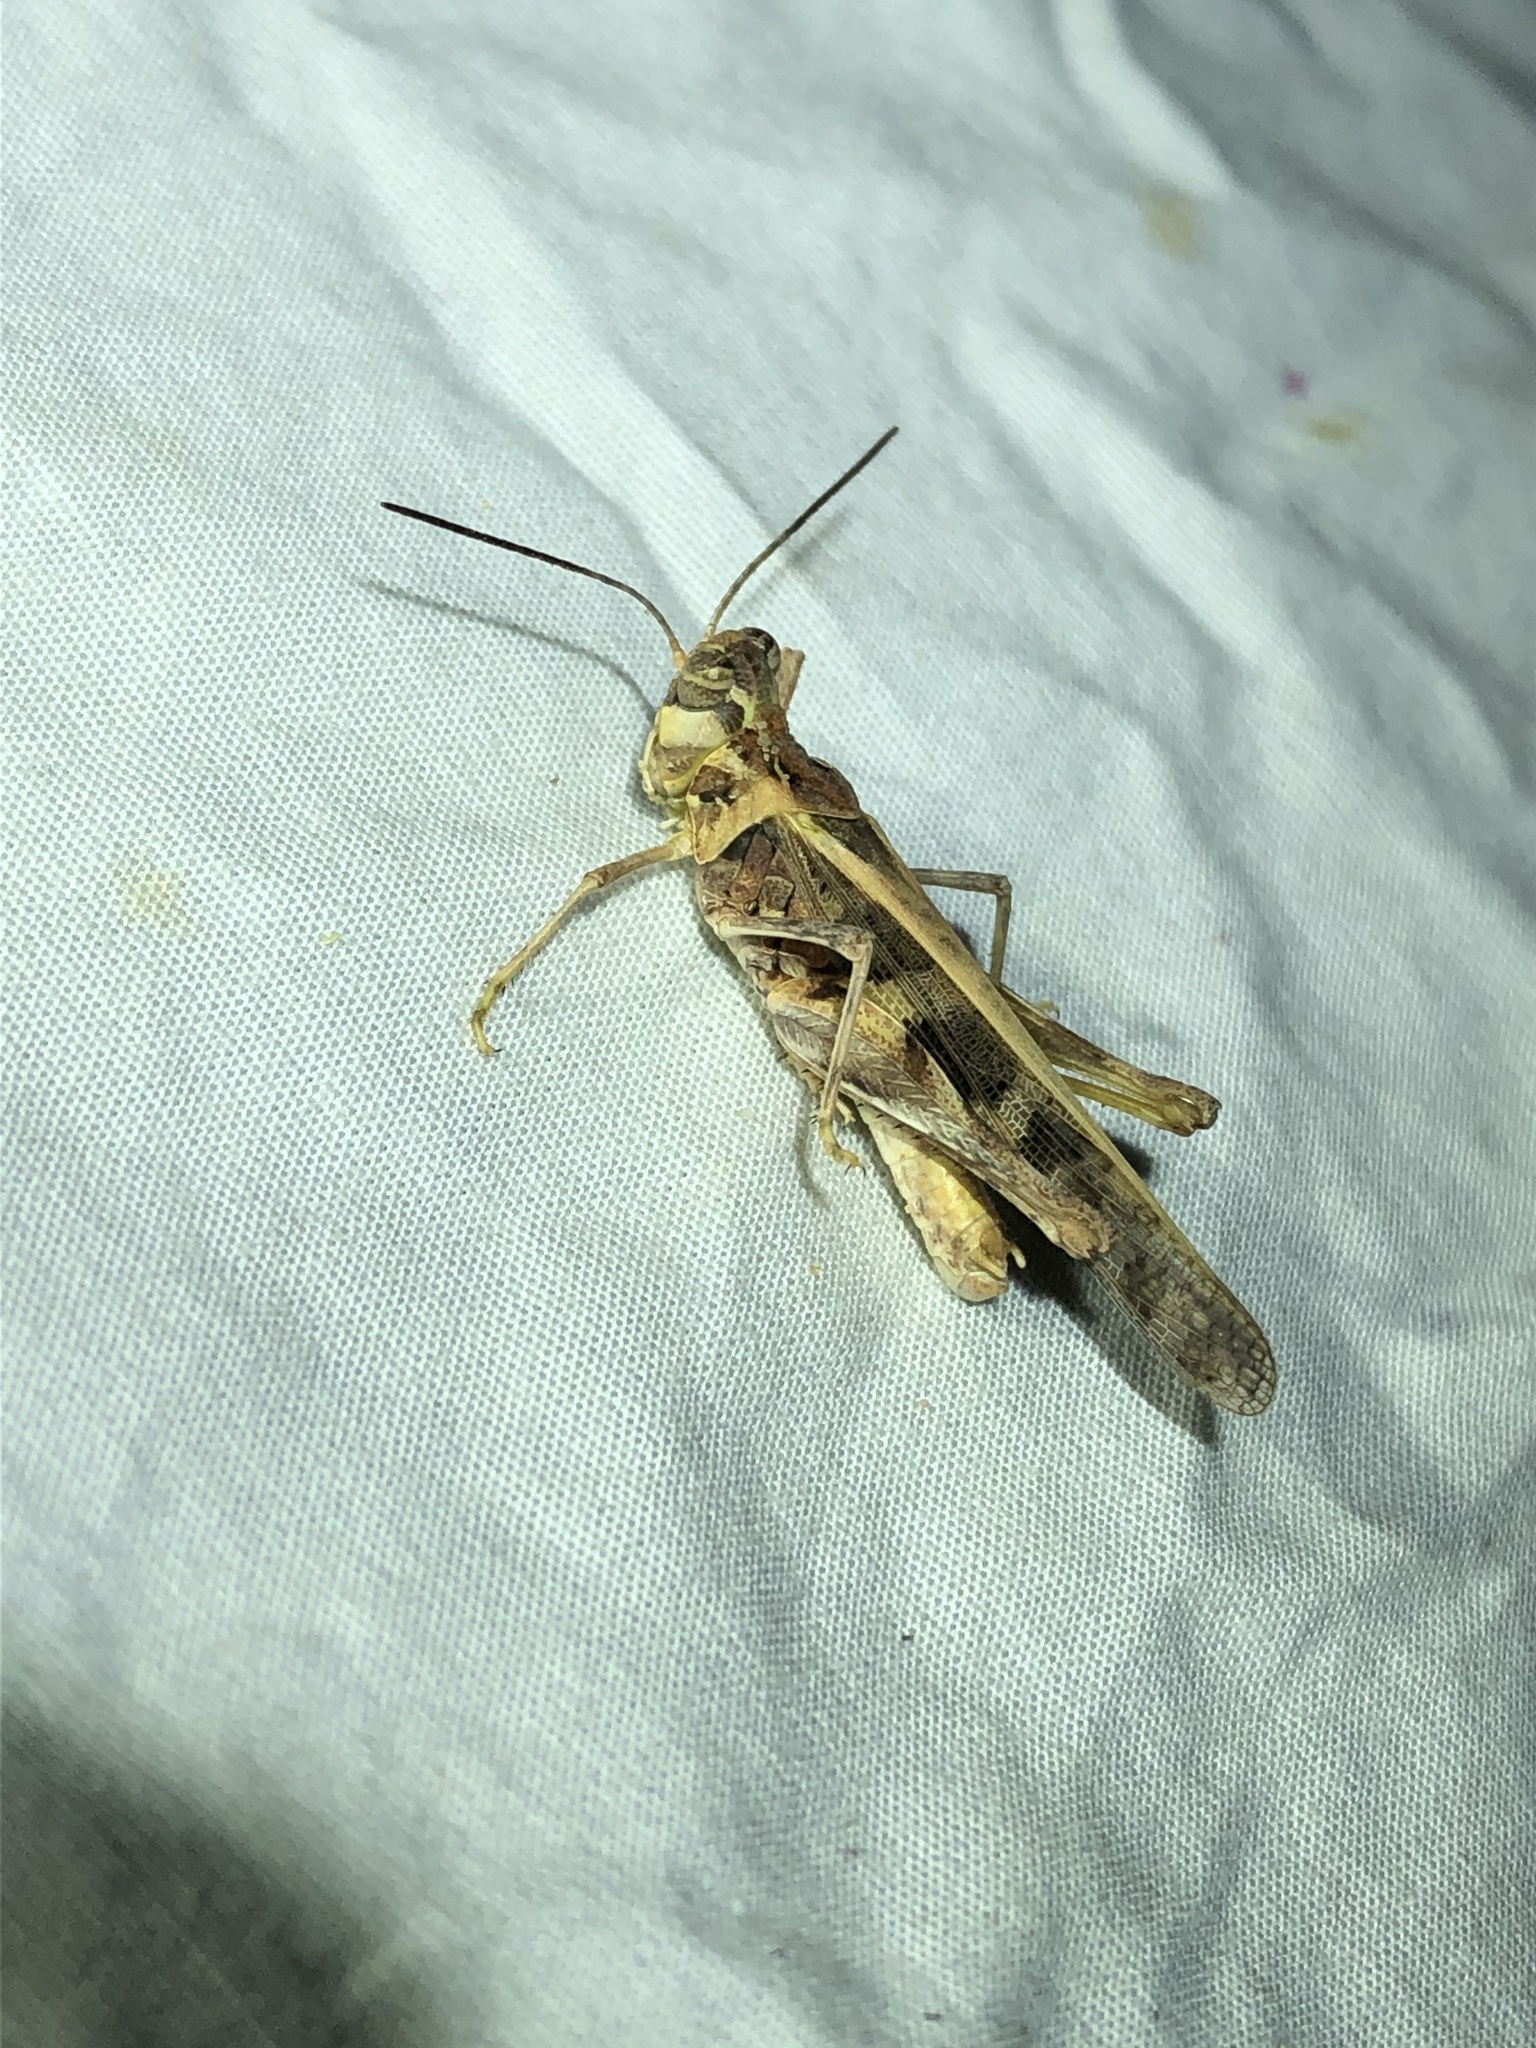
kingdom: Animalia
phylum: Arthropoda
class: Insecta
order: Orthoptera
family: Acrididae
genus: Hippopedon
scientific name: Hippopedon capito
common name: Apache grasshopper
